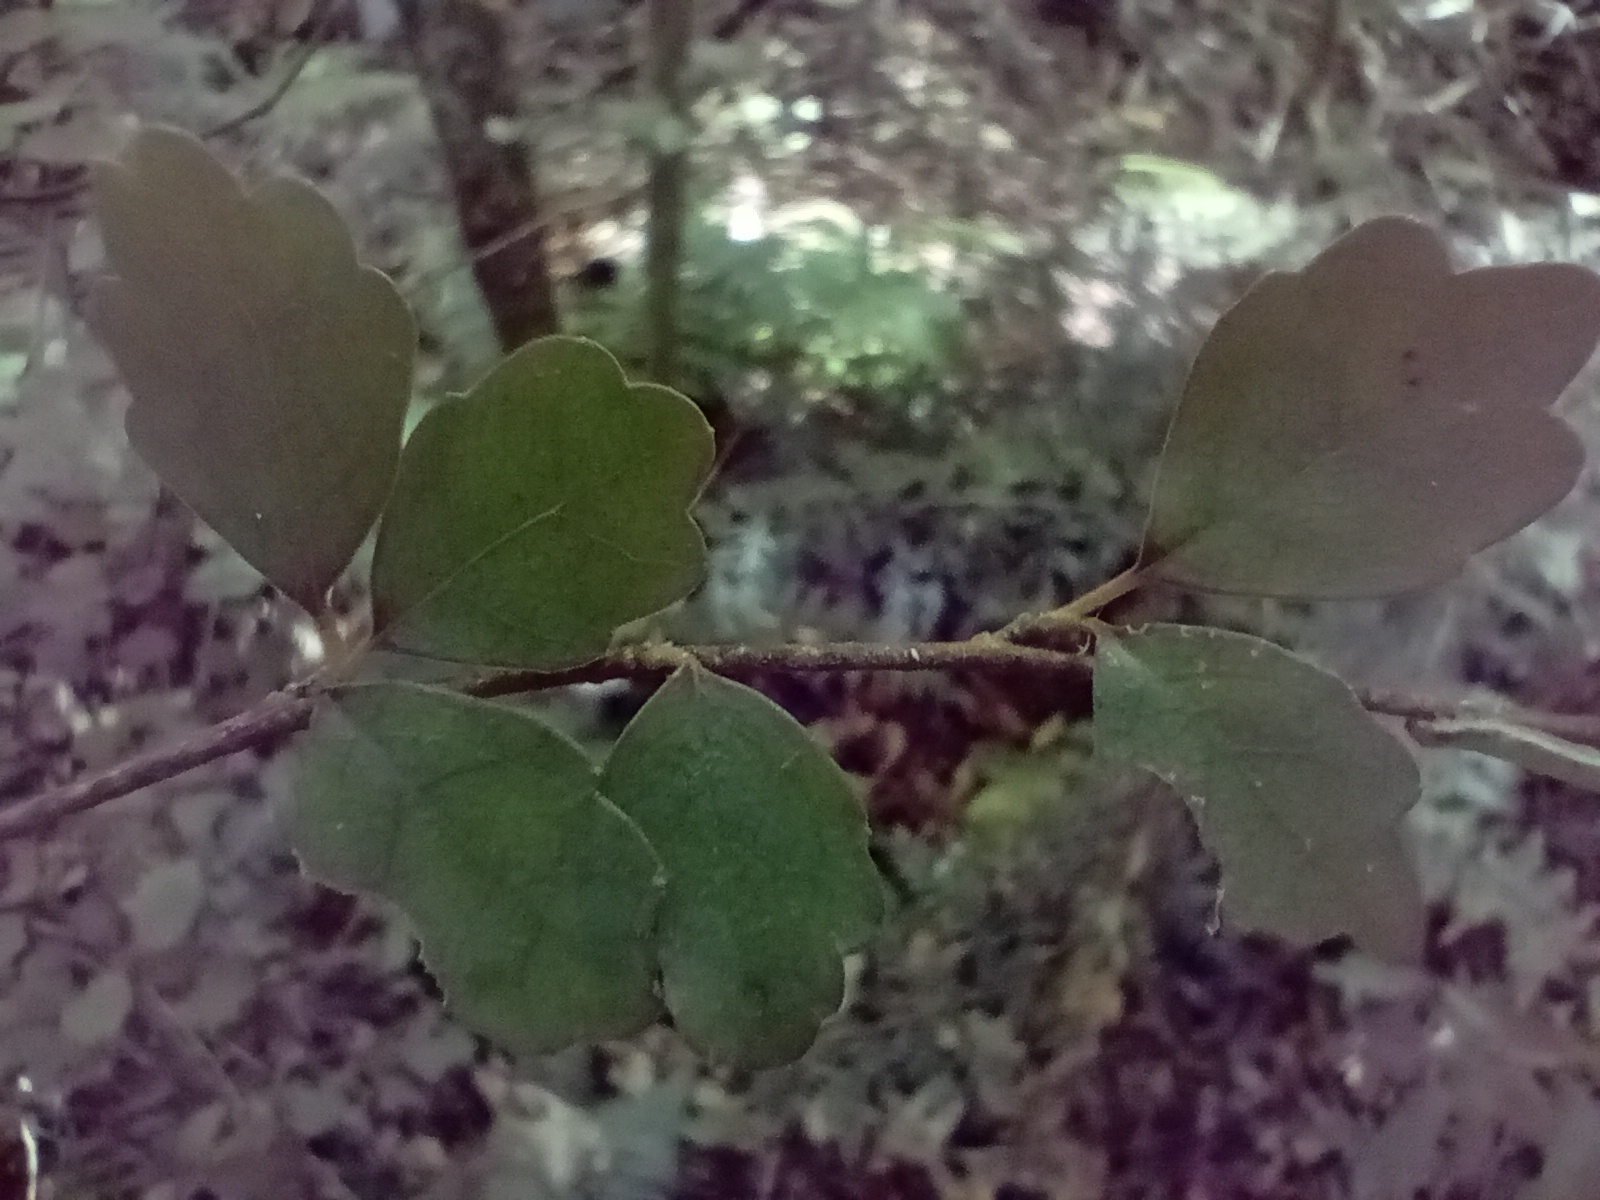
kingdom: Plantae
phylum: Tracheophyta
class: Magnoliopsida
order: Apiales
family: Pennantiaceae
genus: Pennantia
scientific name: Pennantia corymbosa
